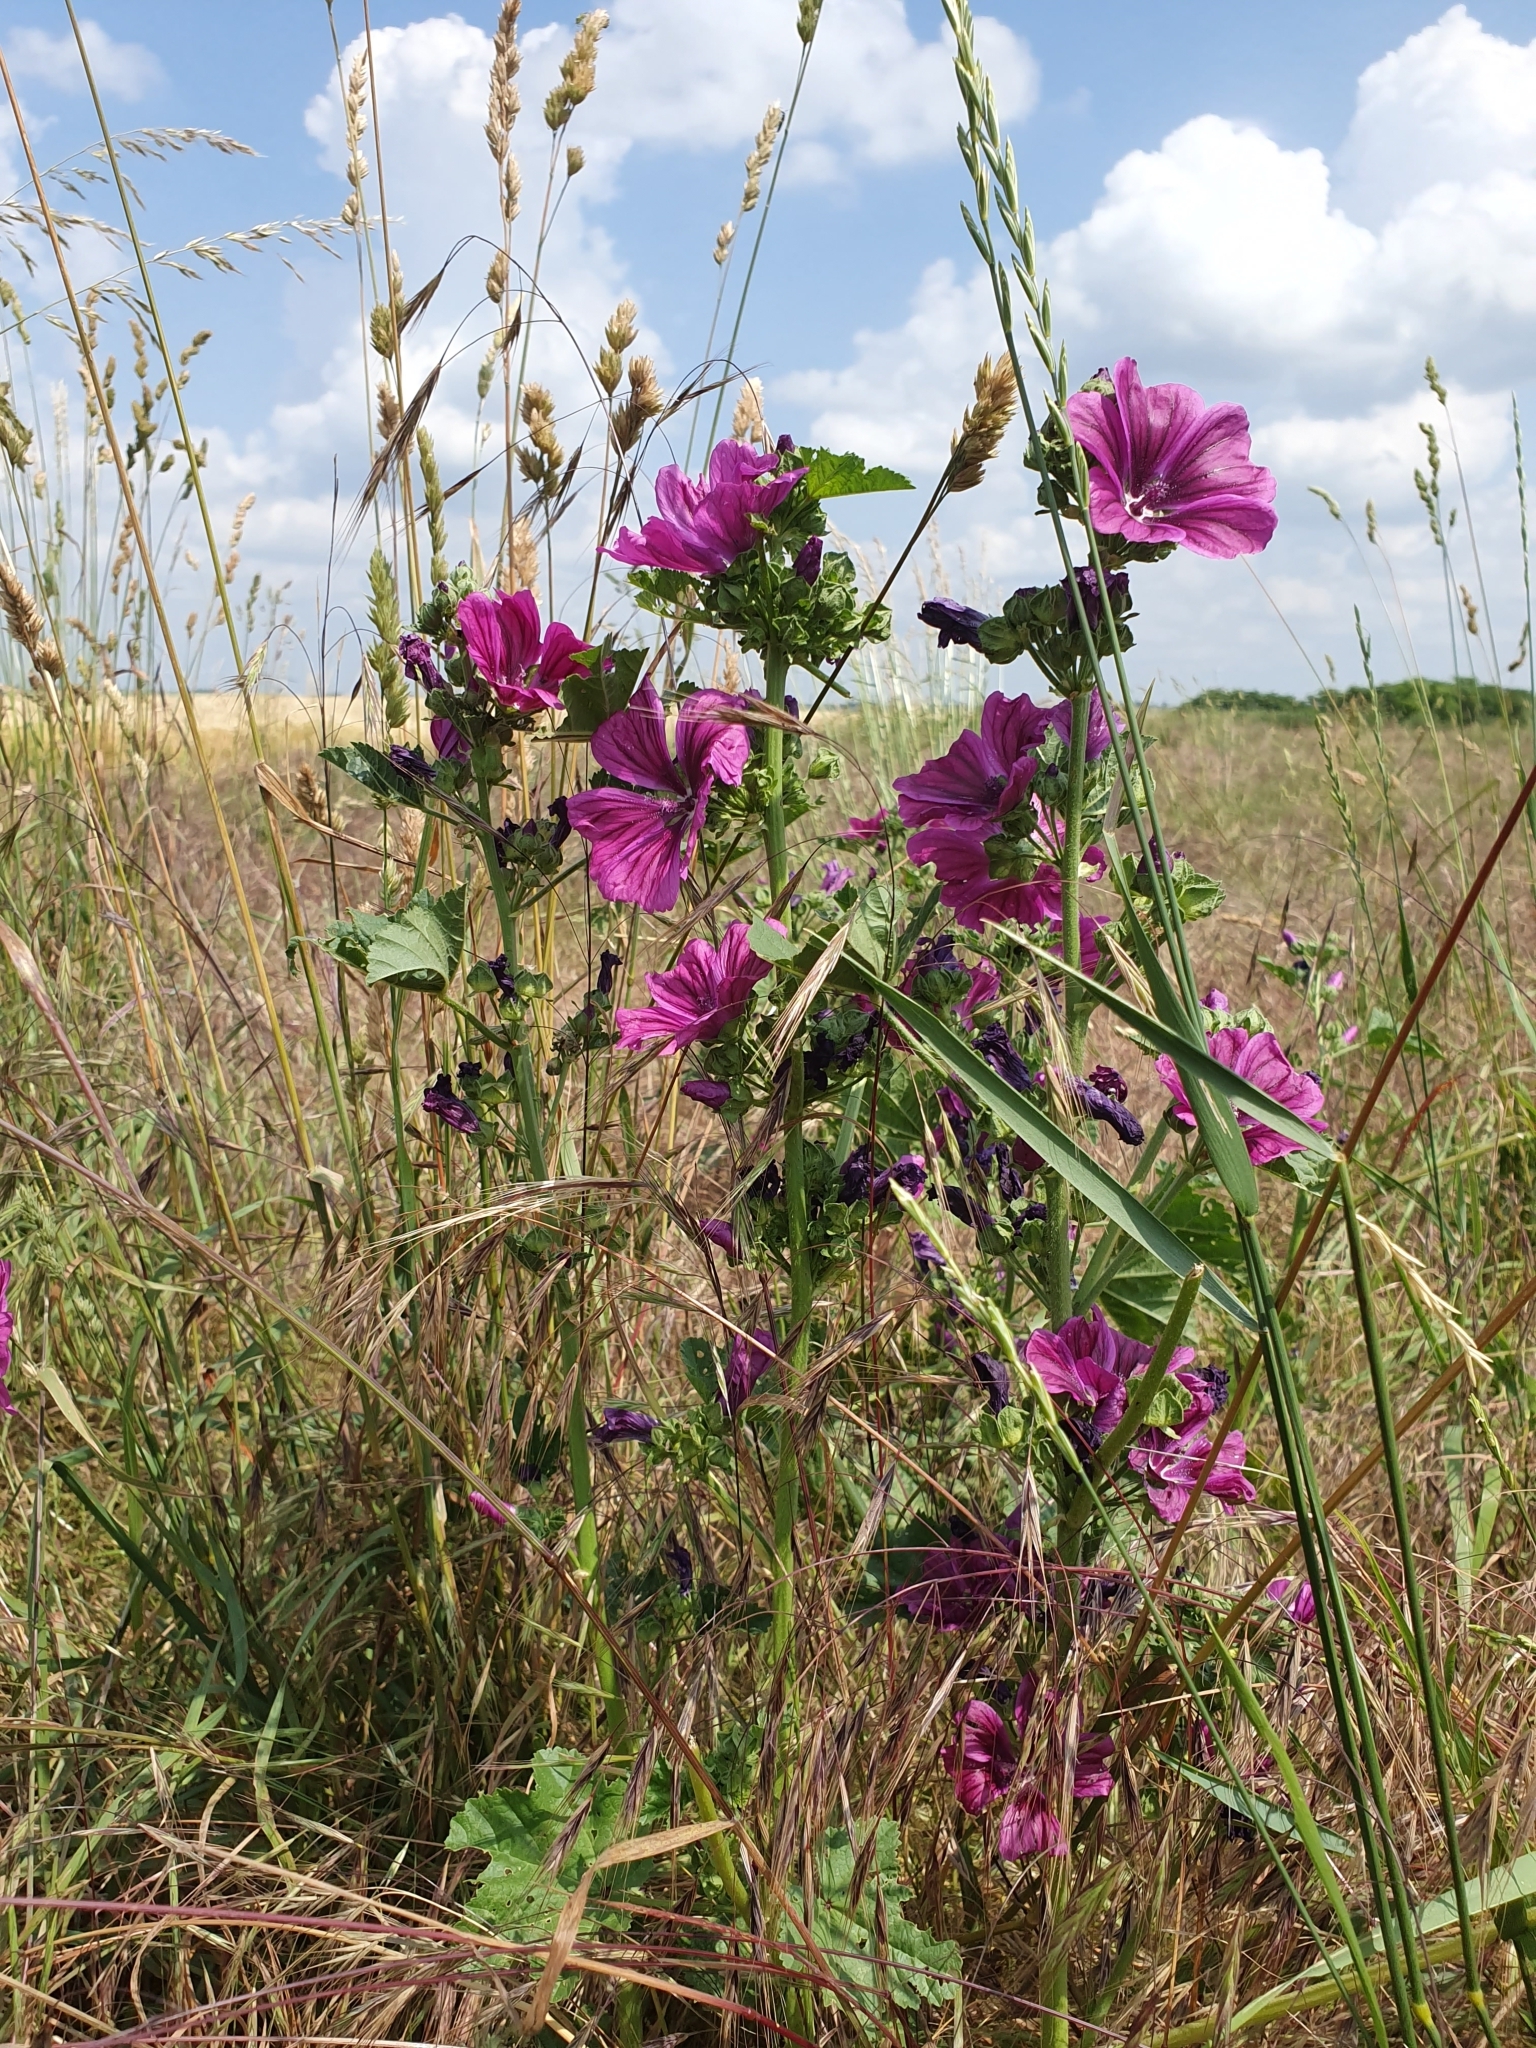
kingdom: Plantae
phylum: Tracheophyta
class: Magnoliopsida
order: Malvales
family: Malvaceae
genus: Malva
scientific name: Malva sylvestris
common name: Common mallow
